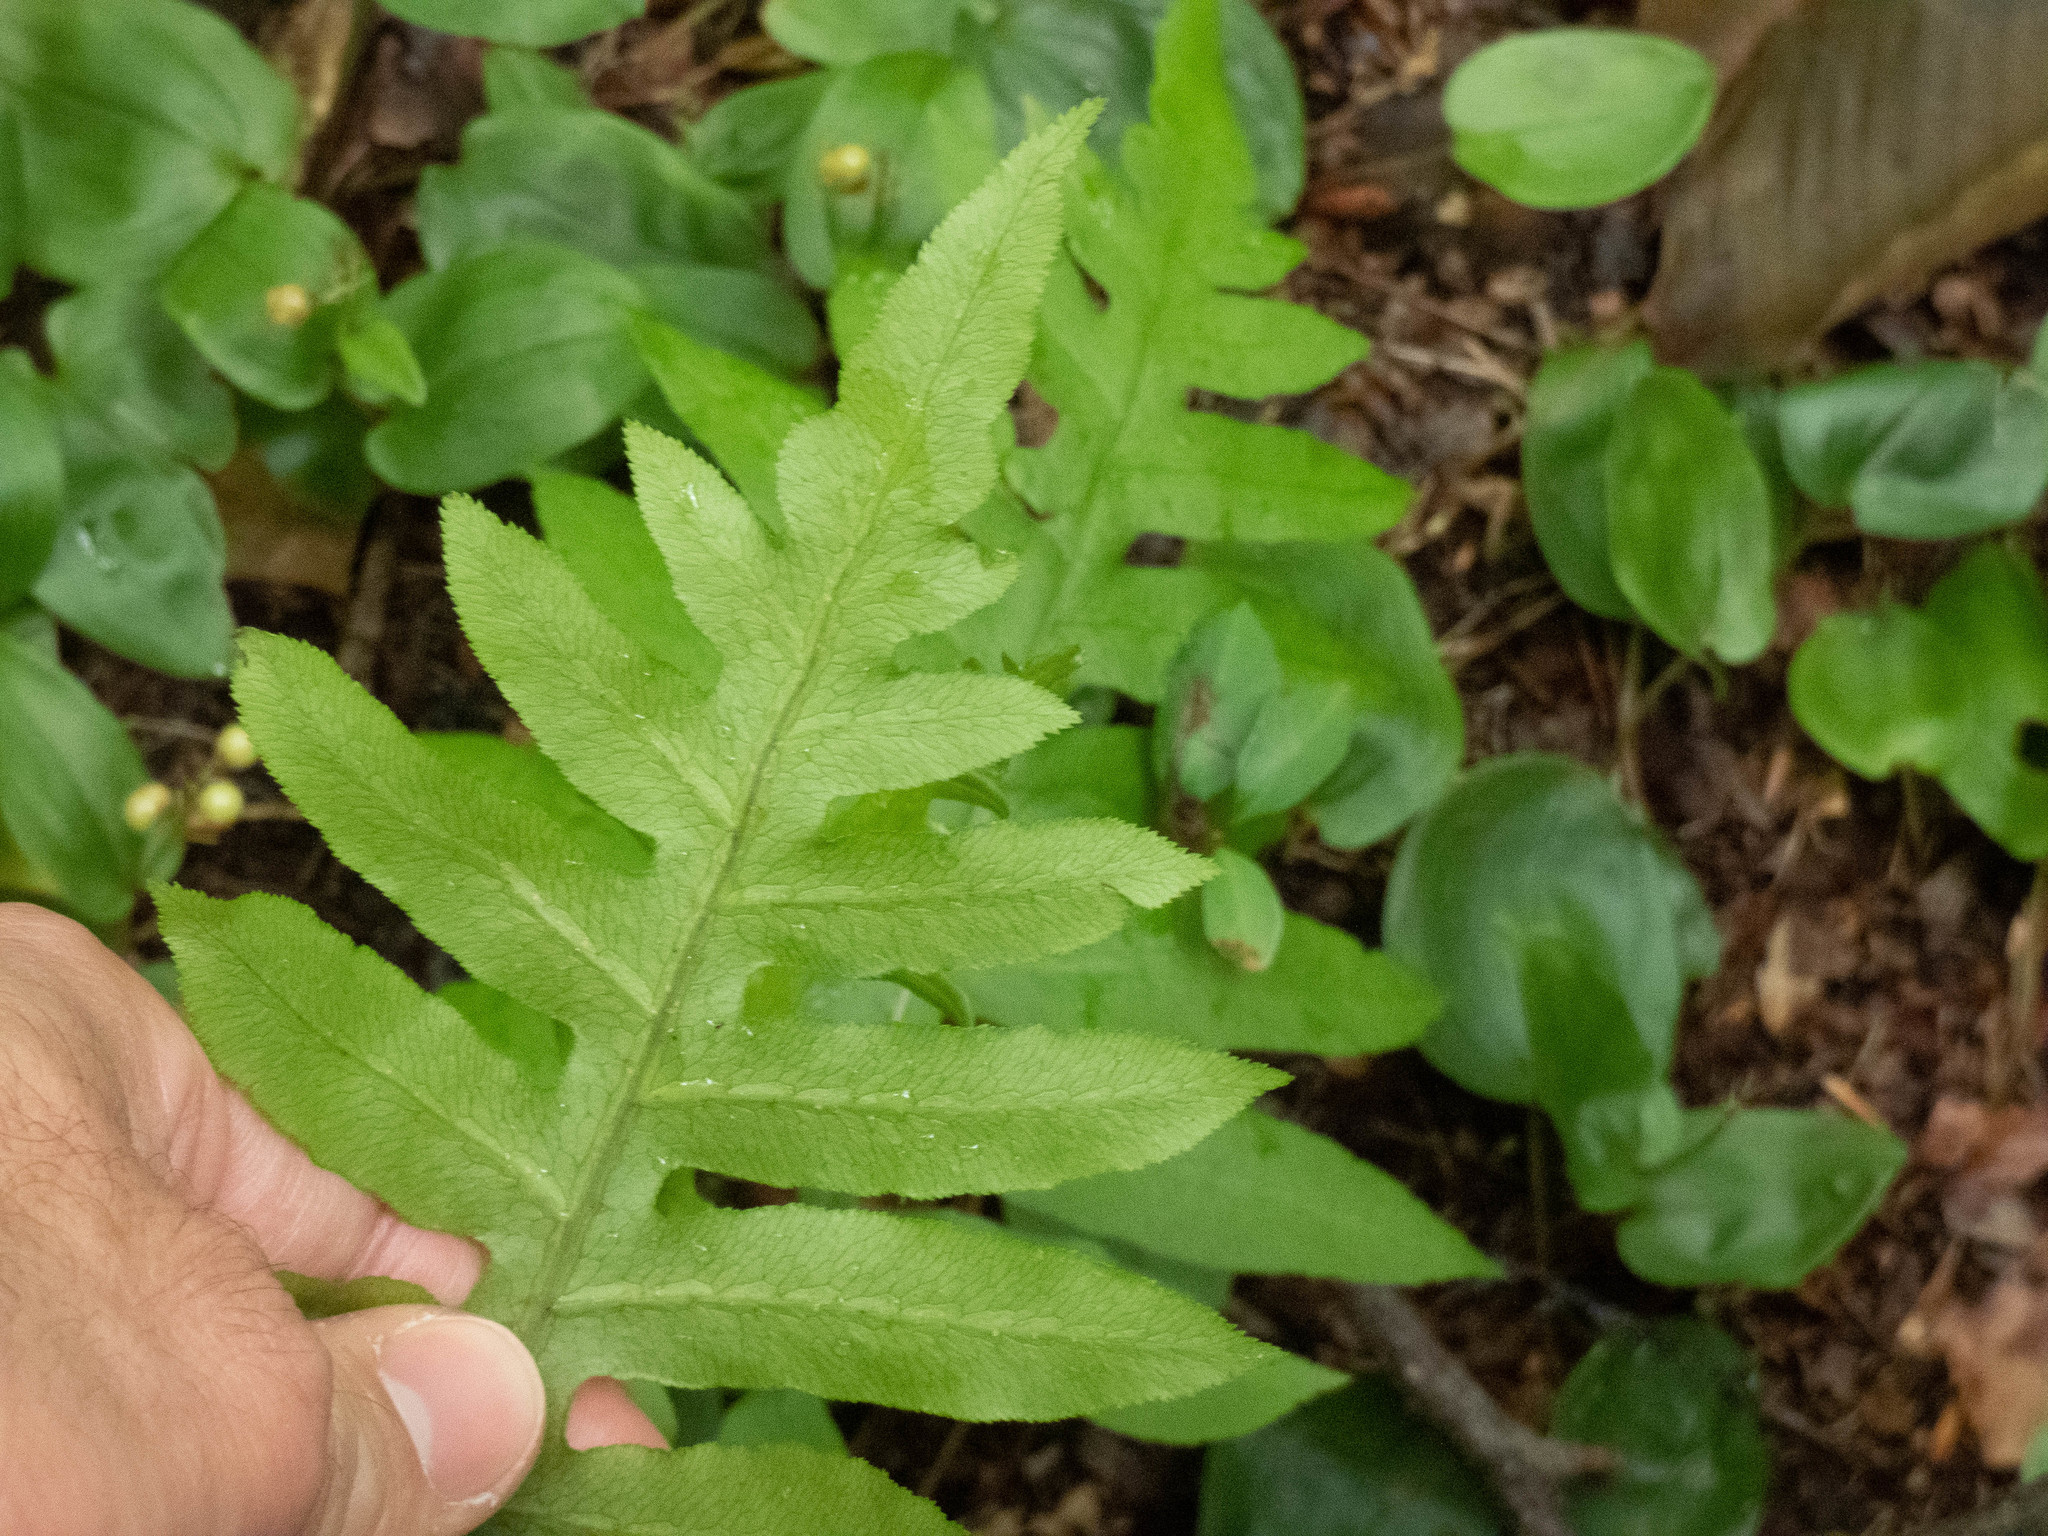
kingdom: Plantae
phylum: Tracheophyta
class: Polypodiopsida
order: Polypodiales
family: Blechnaceae
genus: Lorinseria
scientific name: Lorinseria areolata
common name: Dwarf chain fern
